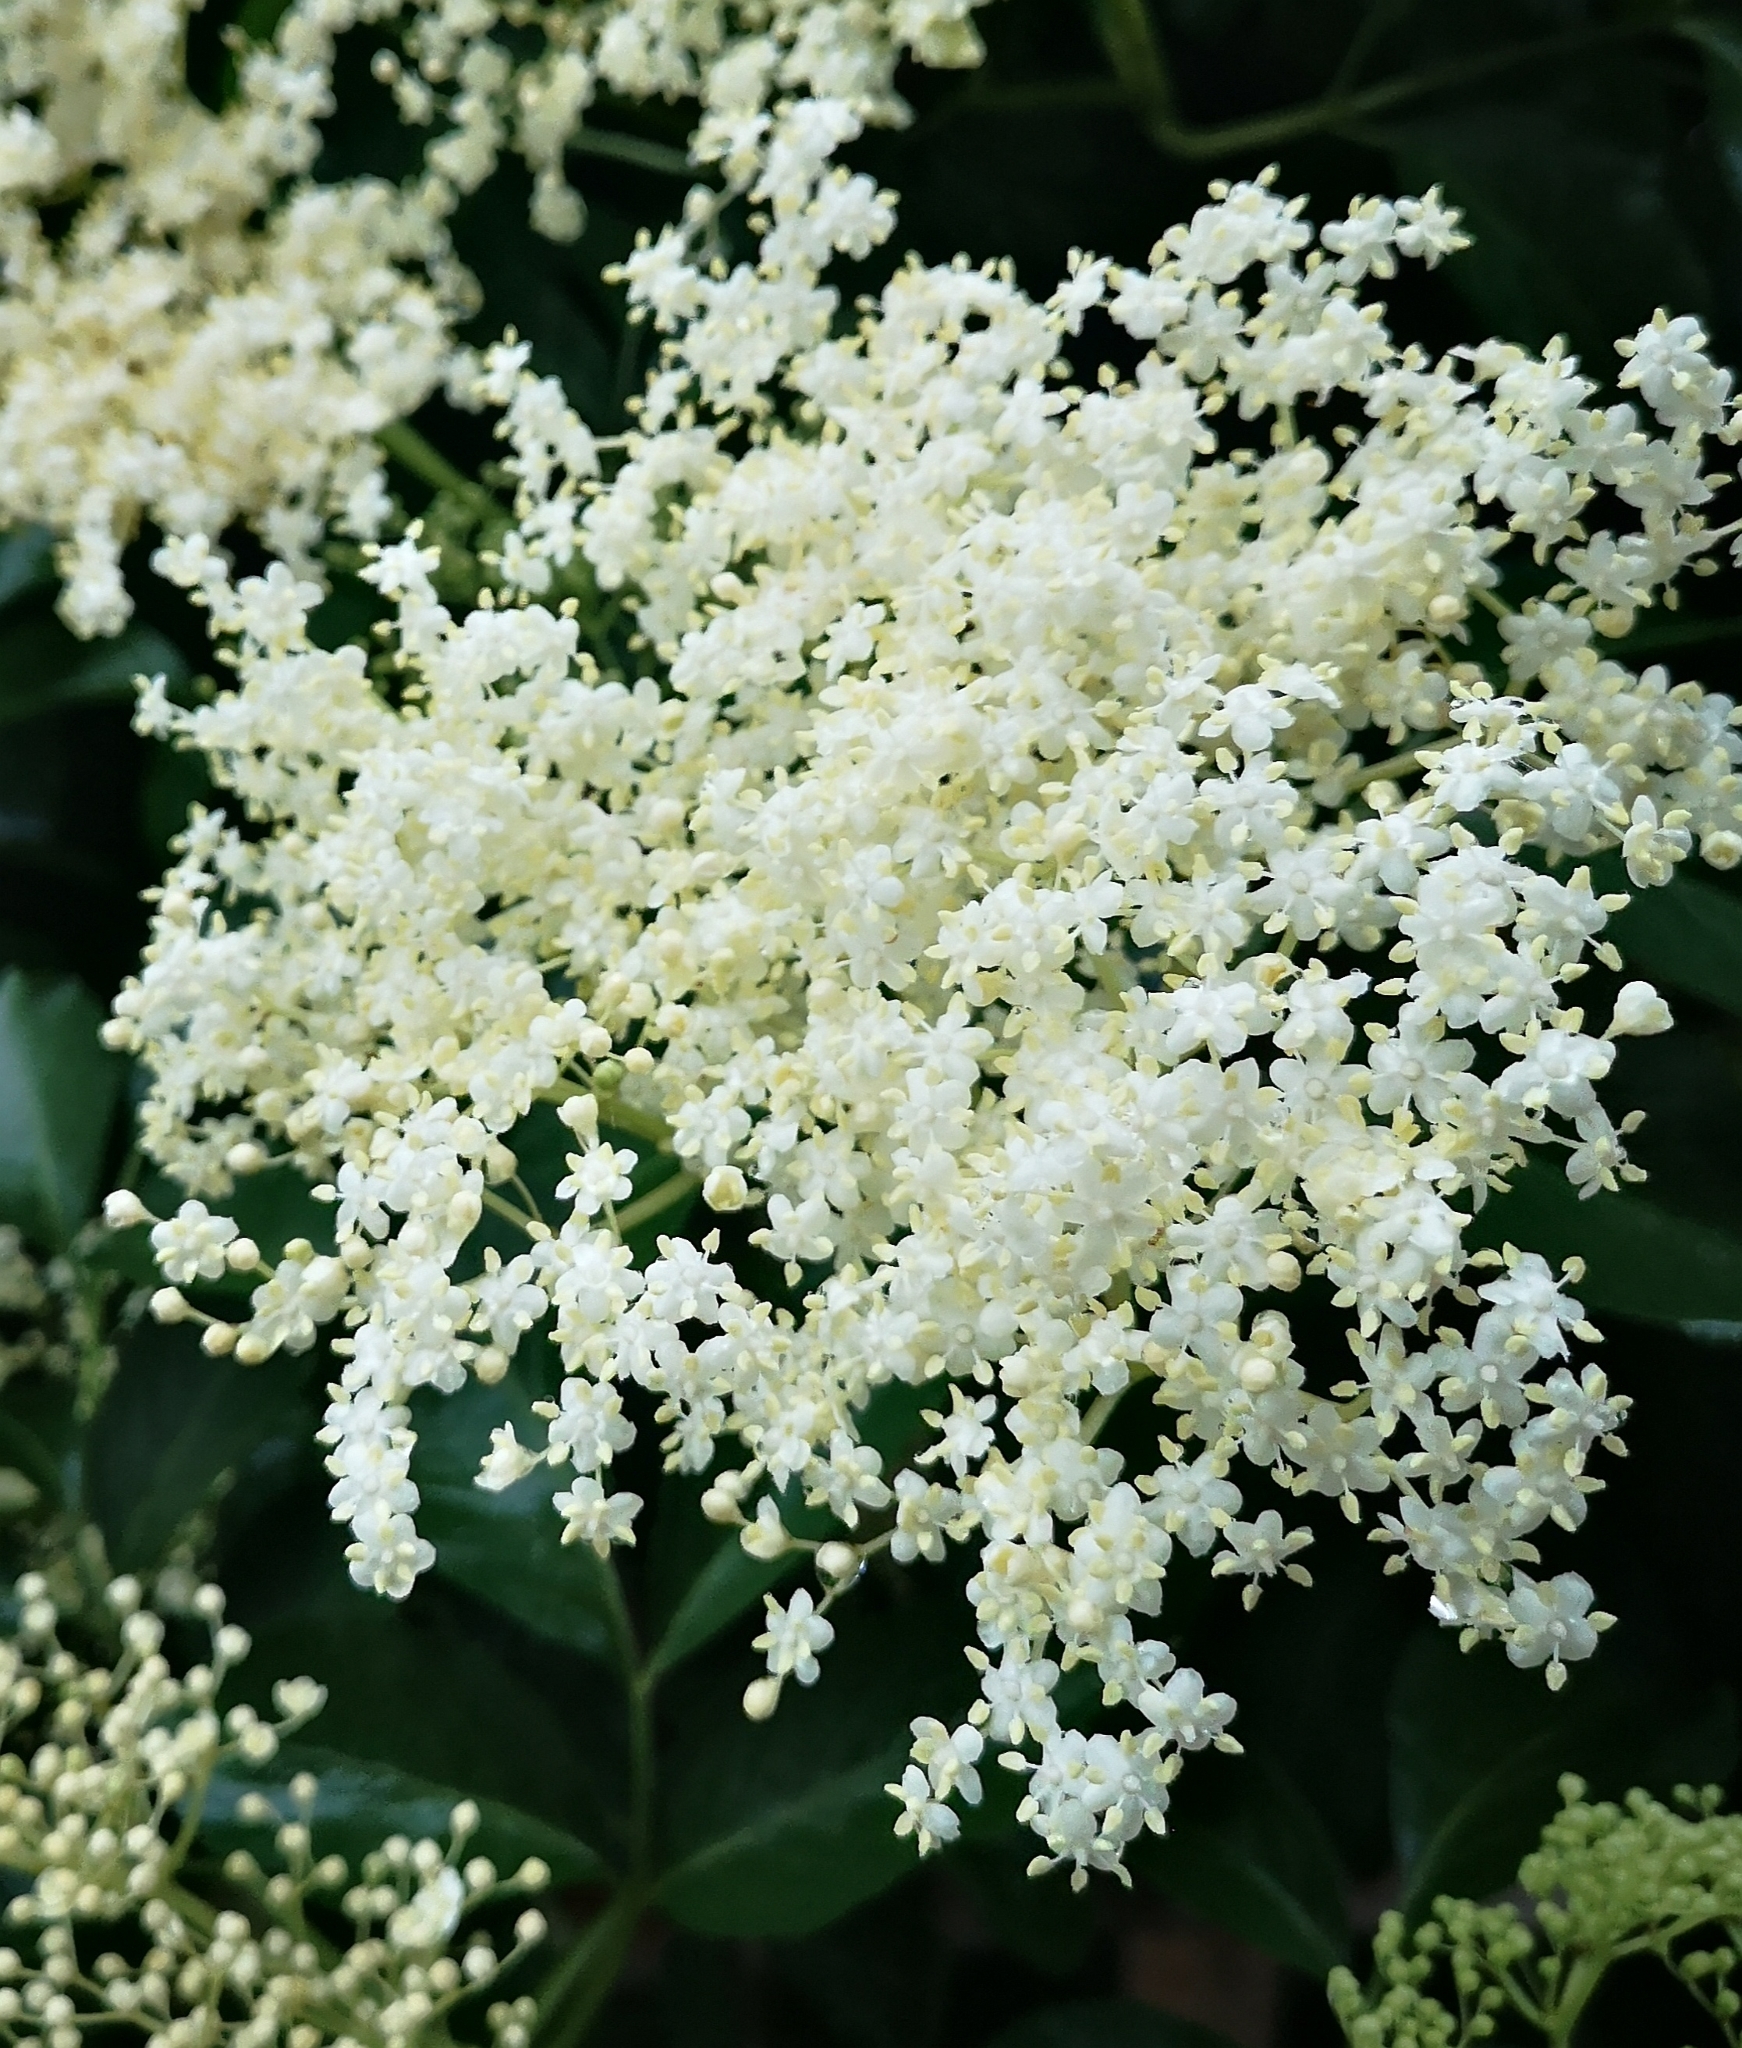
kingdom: Plantae
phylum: Tracheophyta
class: Magnoliopsida
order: Dipsacales
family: Viburnaceae
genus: Sambucus
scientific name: Sambucus nigra
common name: Elder
